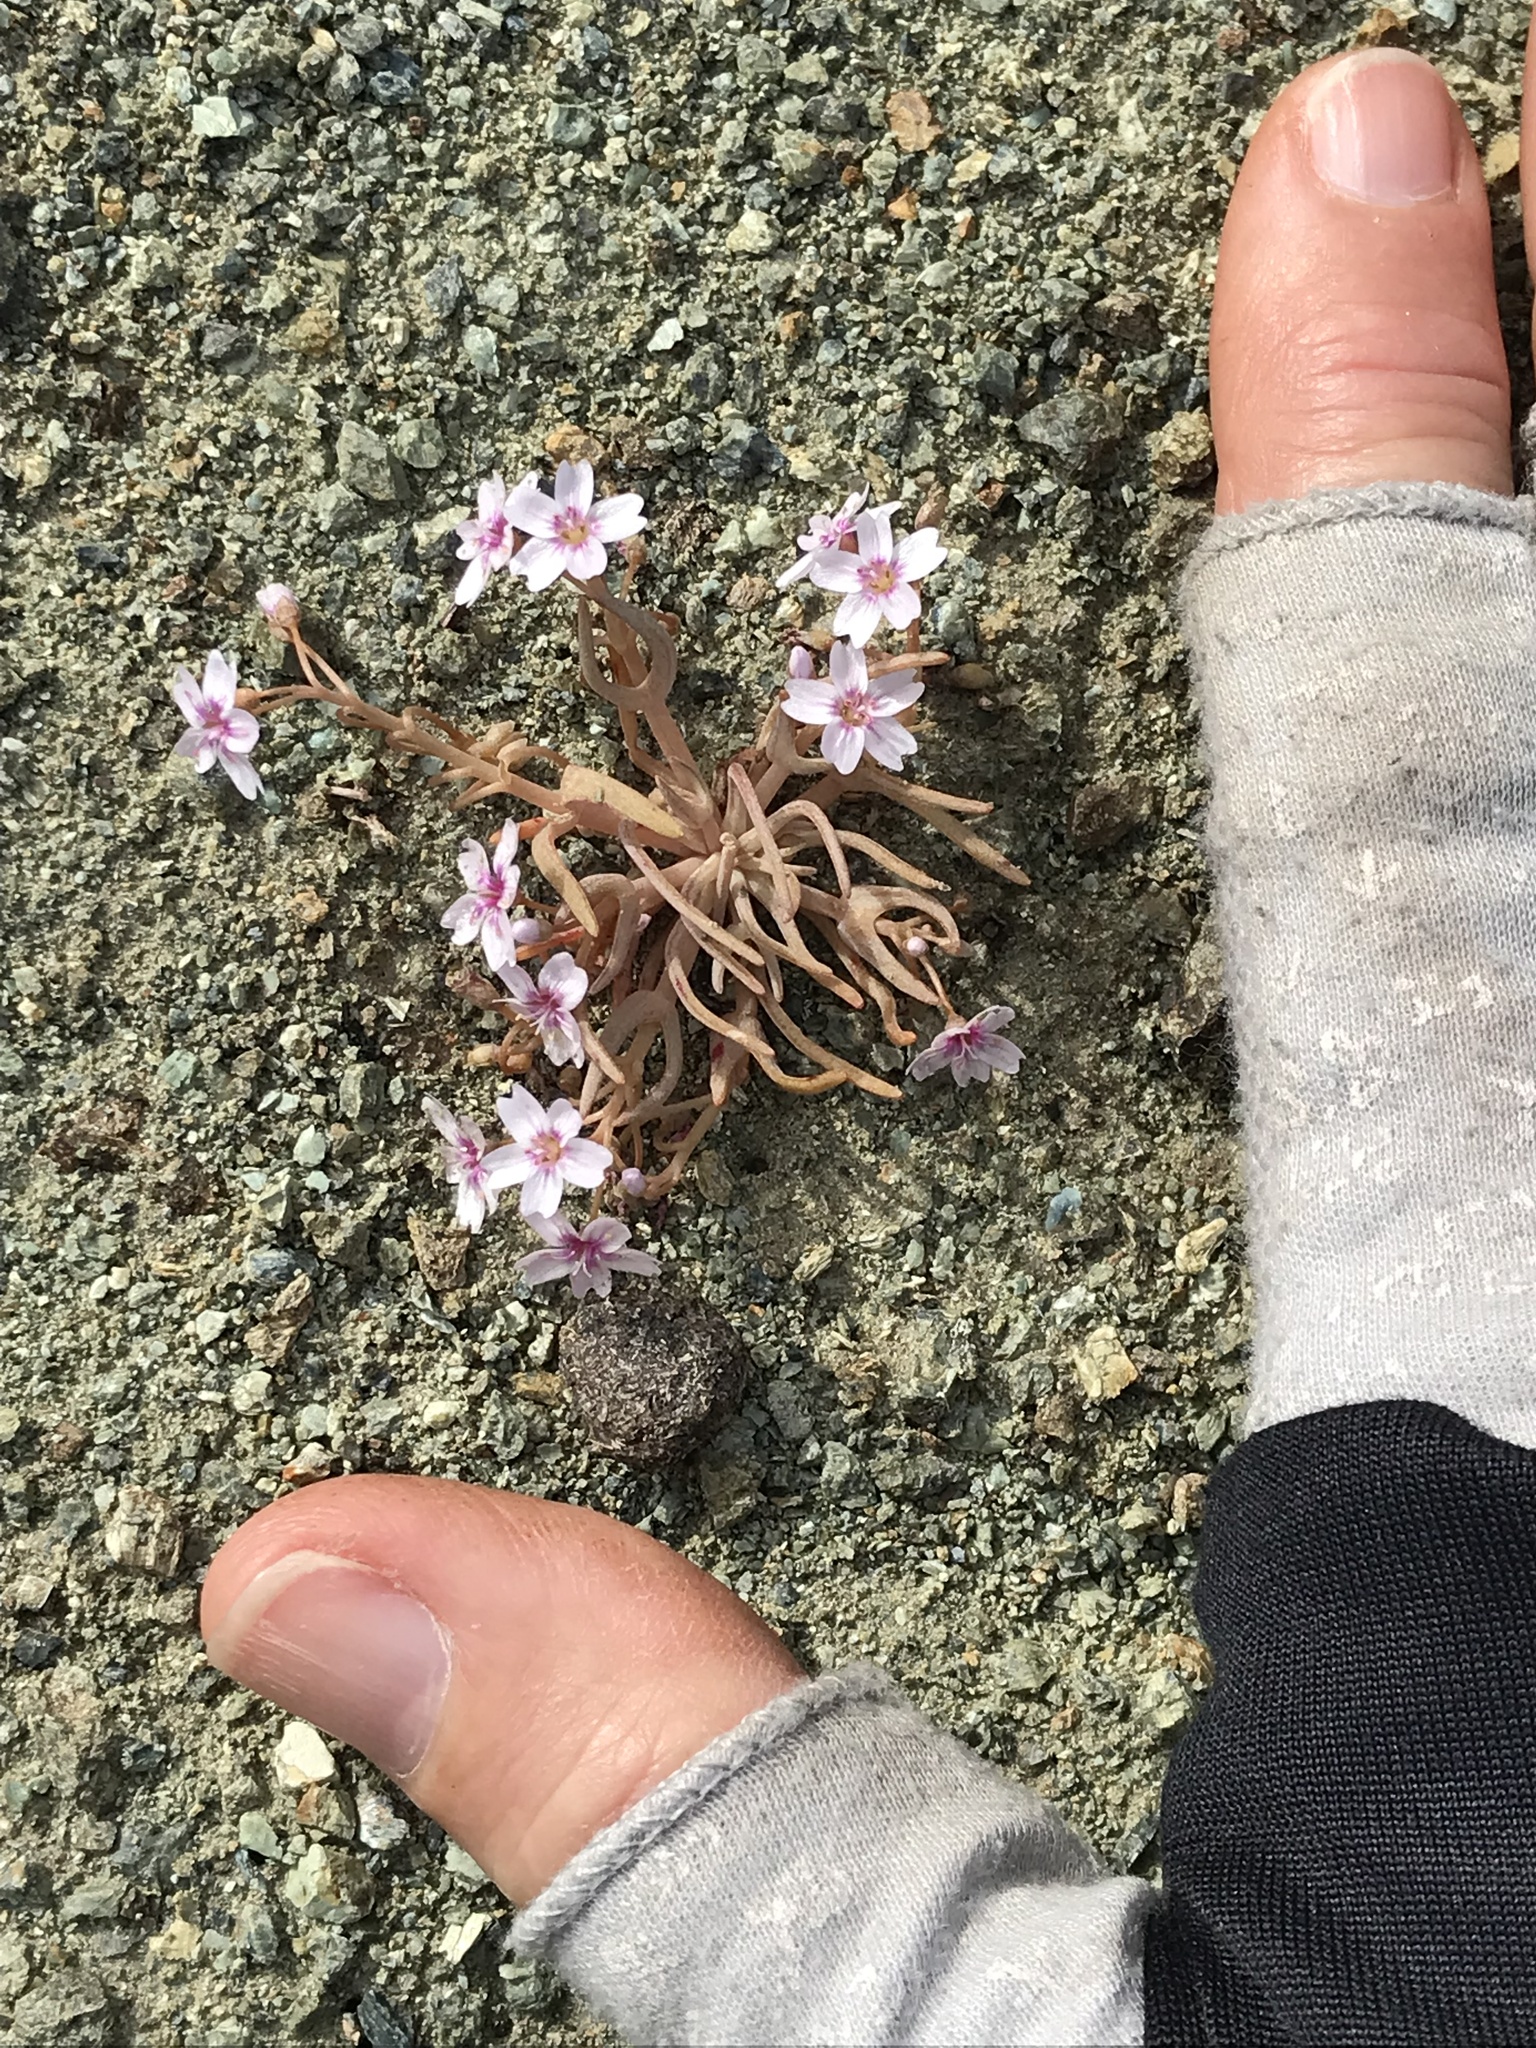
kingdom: Plantae
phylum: Tracheophyta
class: Magnoliopsida
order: Caryophyllales
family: Montiaceae
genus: Claytonia
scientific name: Claytonia gypsophiloides
